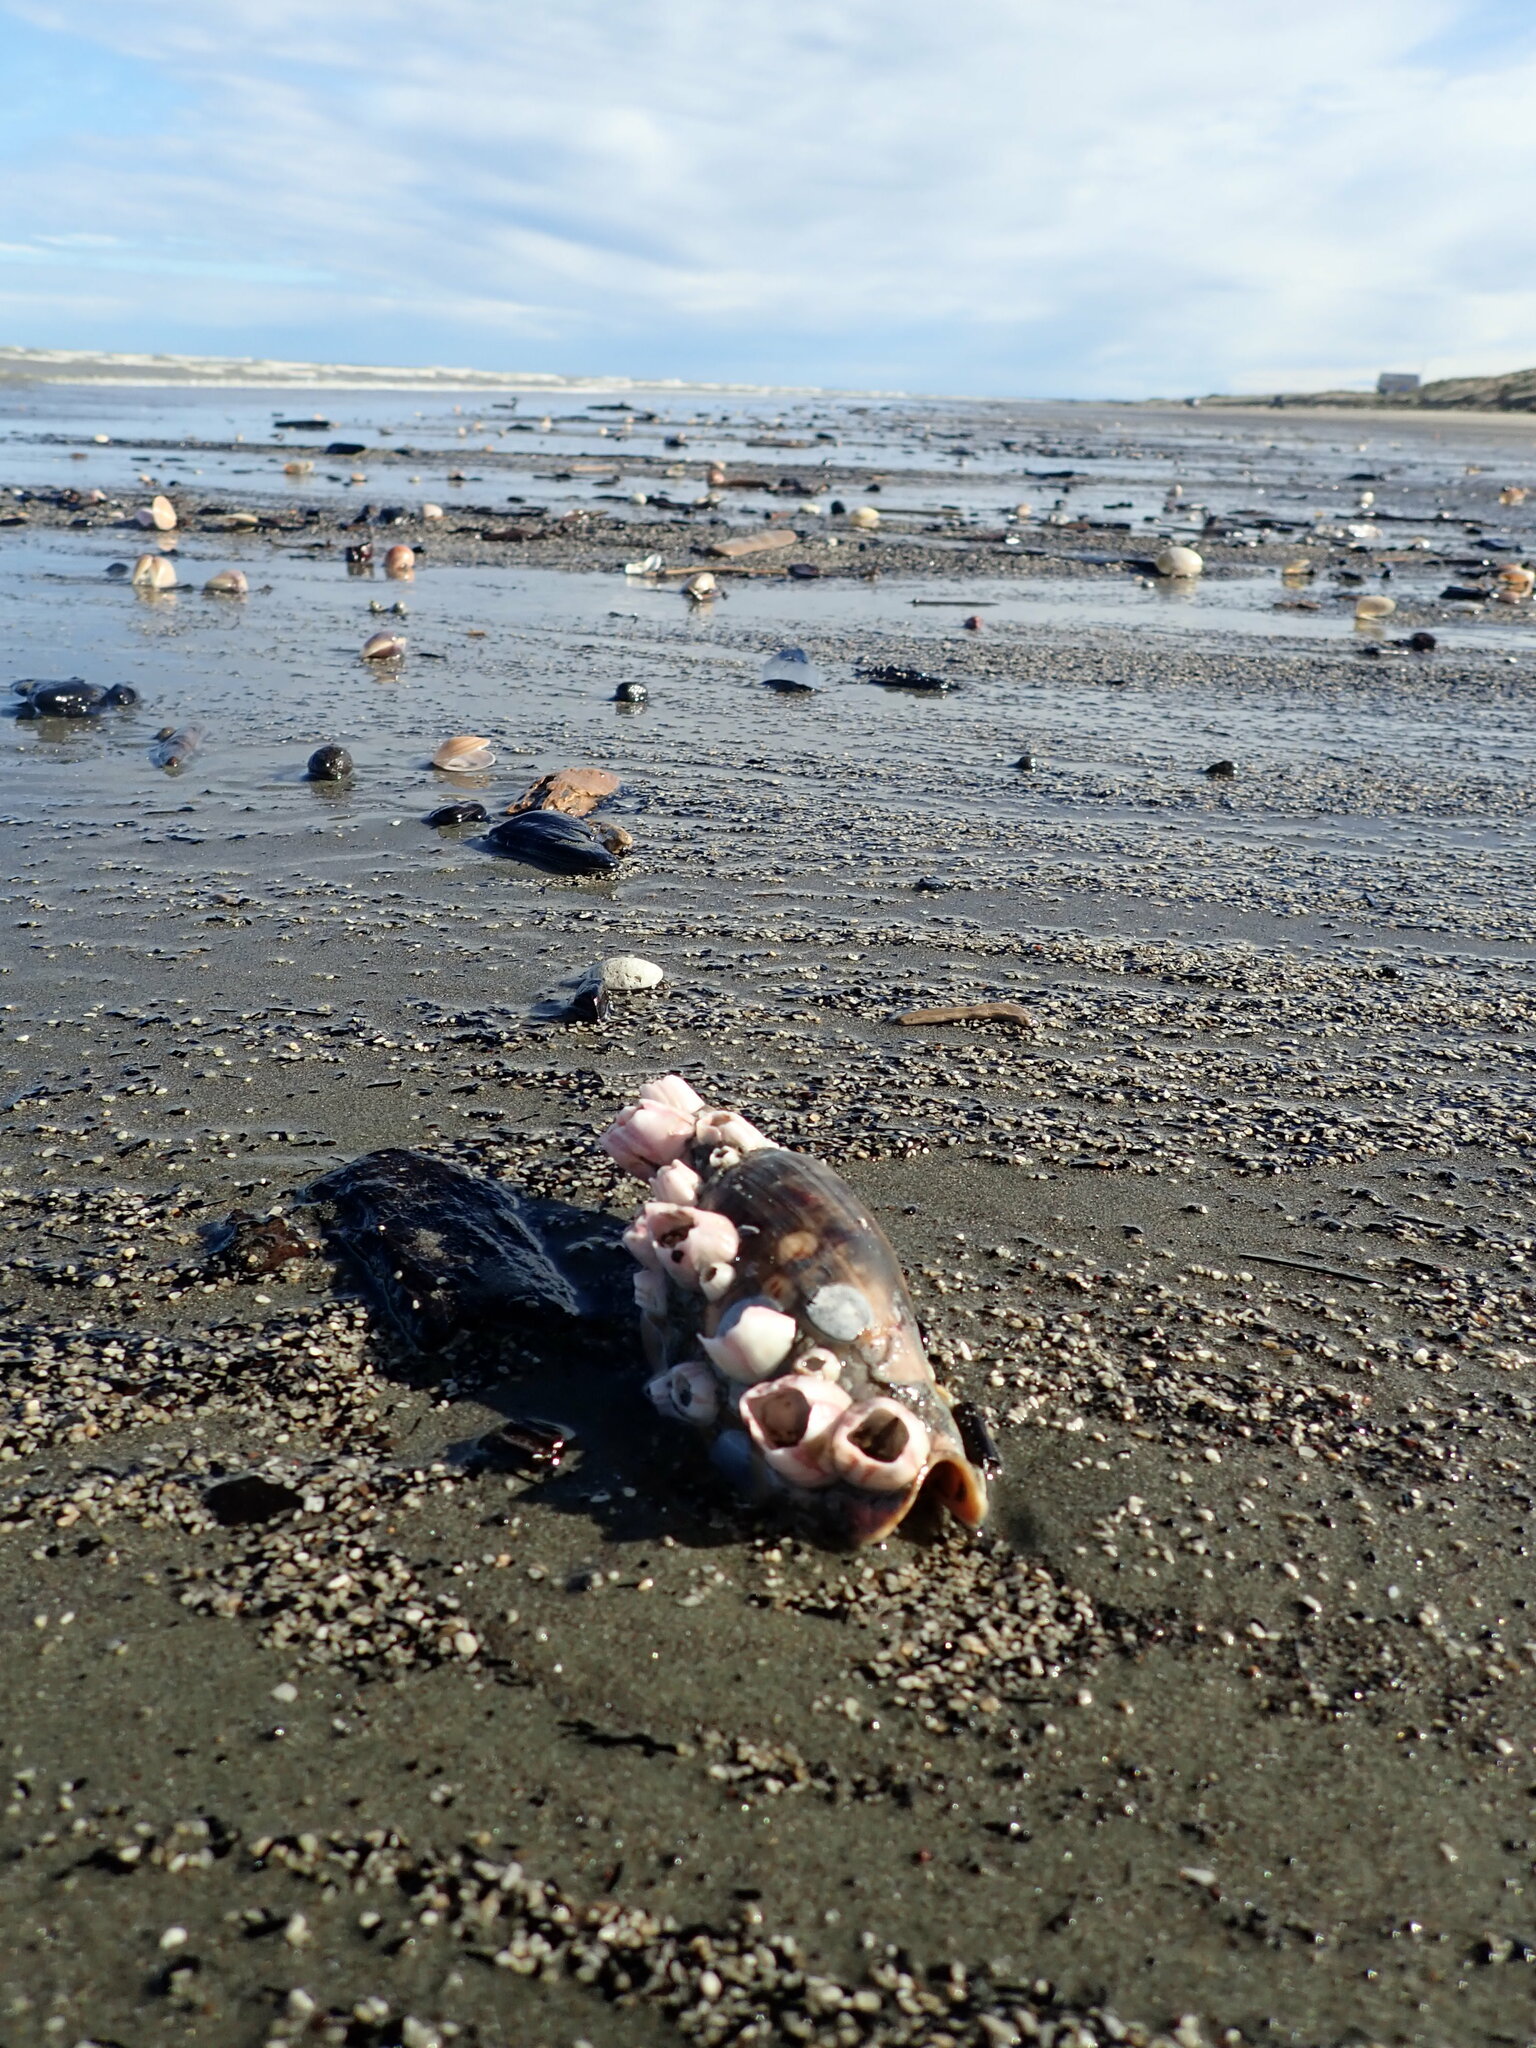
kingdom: Animalia
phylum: Arthropoda
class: Maxillopoda
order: Sessilia
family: Balanidae
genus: Notomegabalanus
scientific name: Notomegabalanus decorus
